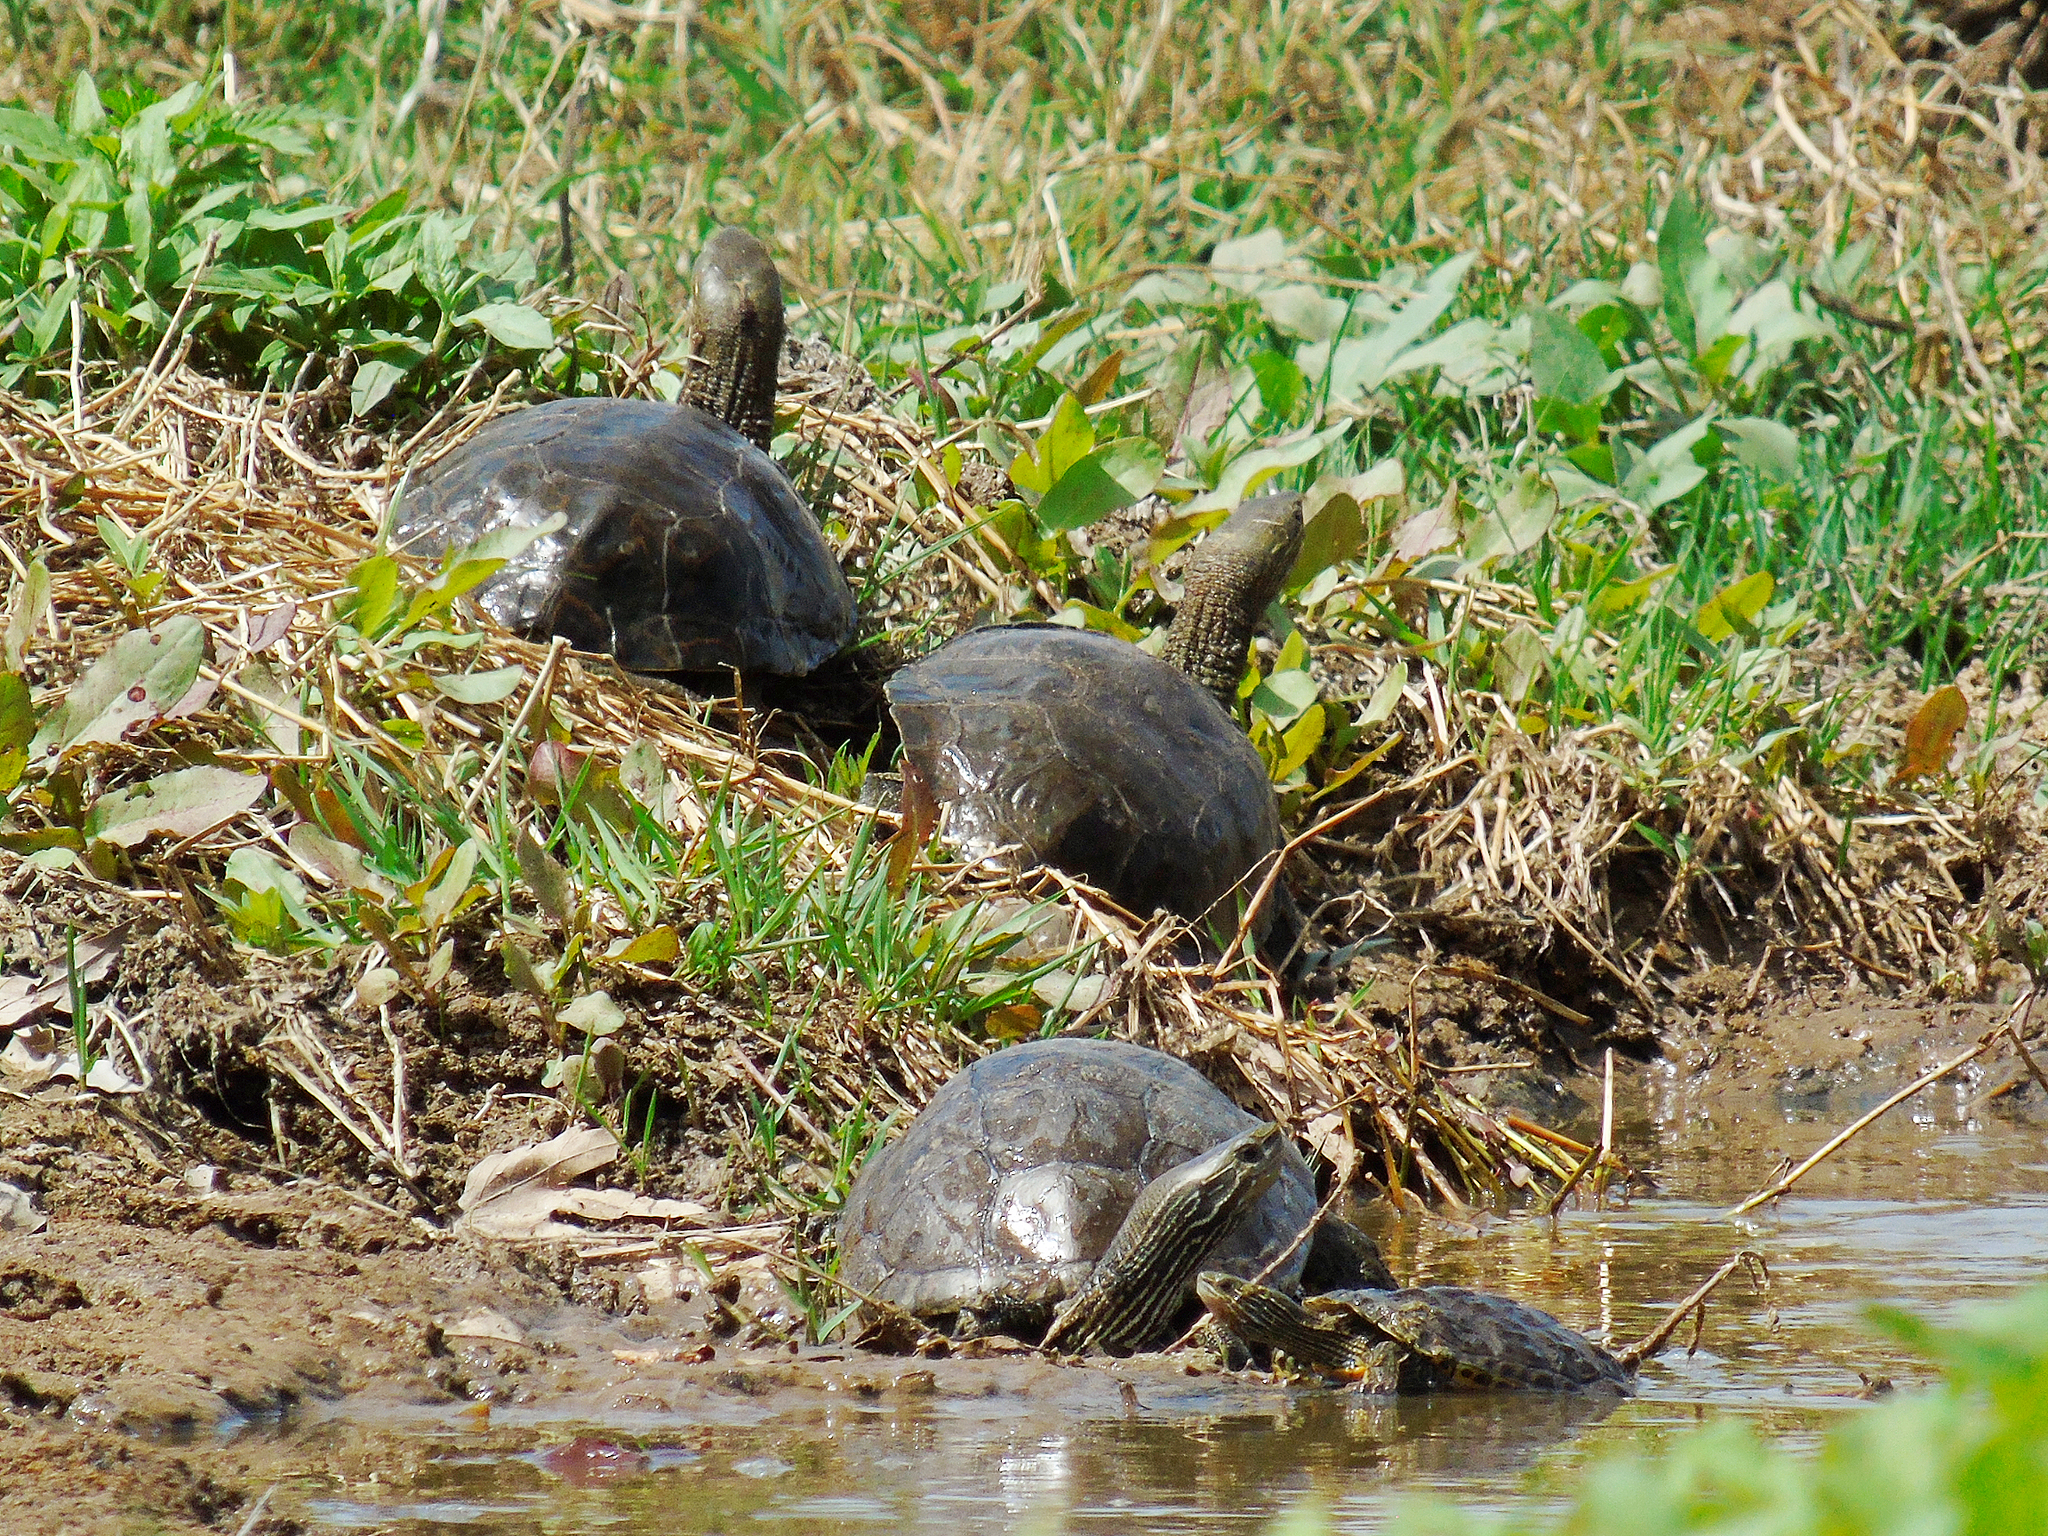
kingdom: Animalia
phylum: Chordata
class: Testudines
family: Geoemydidae
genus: Mauremys
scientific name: Mauremys caspica
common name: Caspian turtle
